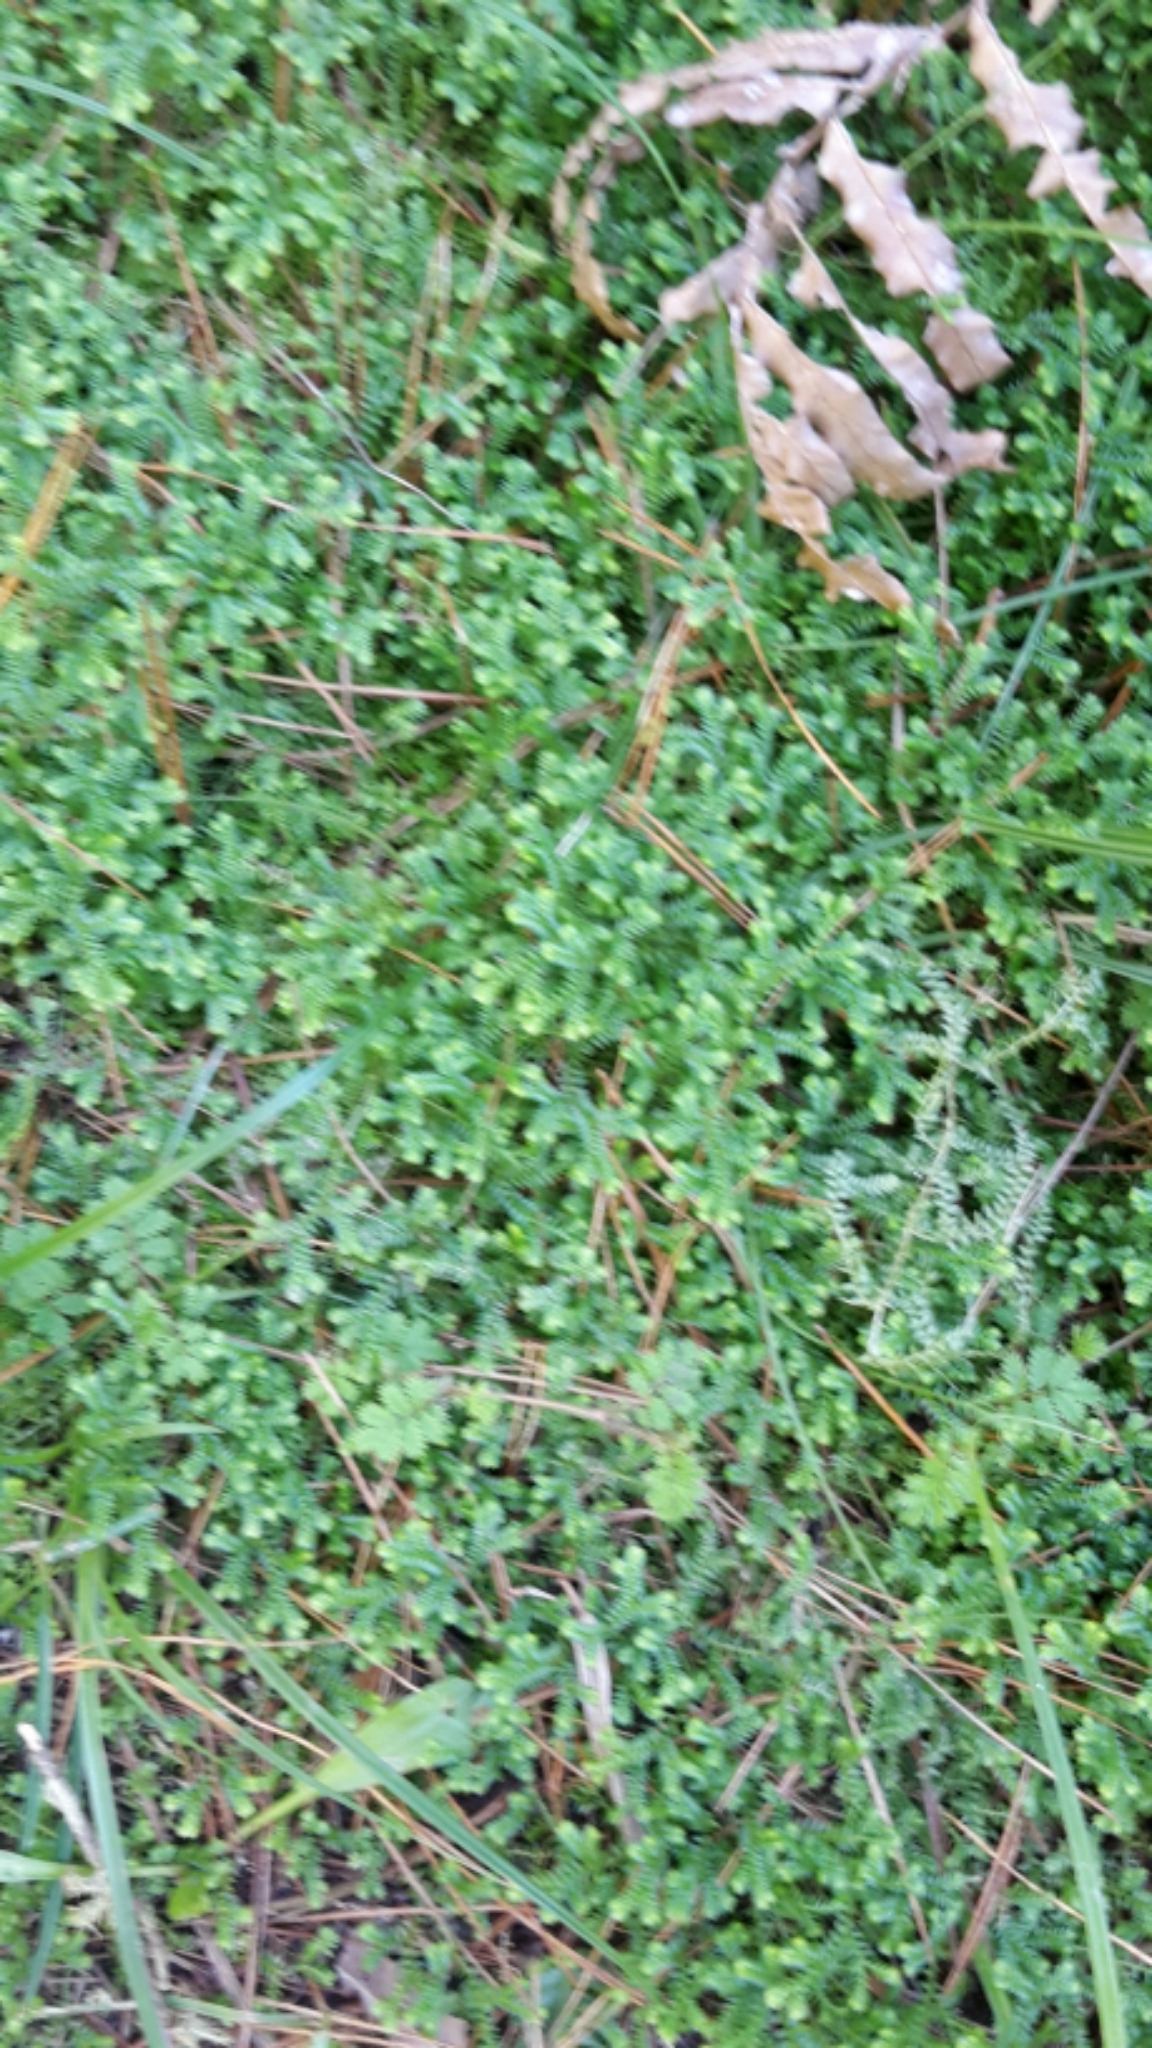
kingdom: Plantae
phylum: Tracheophyta
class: Lycopodiopsida
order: Selaginellales
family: Selaginellaceae
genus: Selaginella
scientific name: Selaginella kraussiana
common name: Krauss' spikemoss
